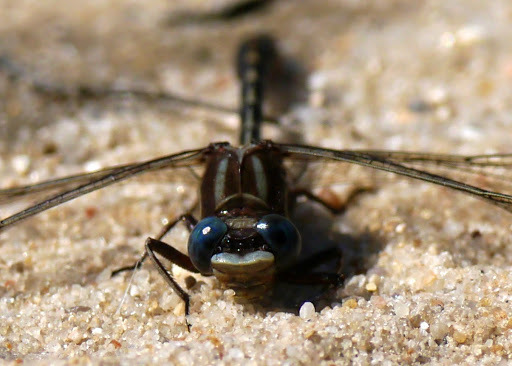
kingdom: Animalia
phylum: Arthropoda
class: Insecta
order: Odonata
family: Gomphidae
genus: Phanogomphus
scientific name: Phanogomphus exilis
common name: Lancet clubtail
